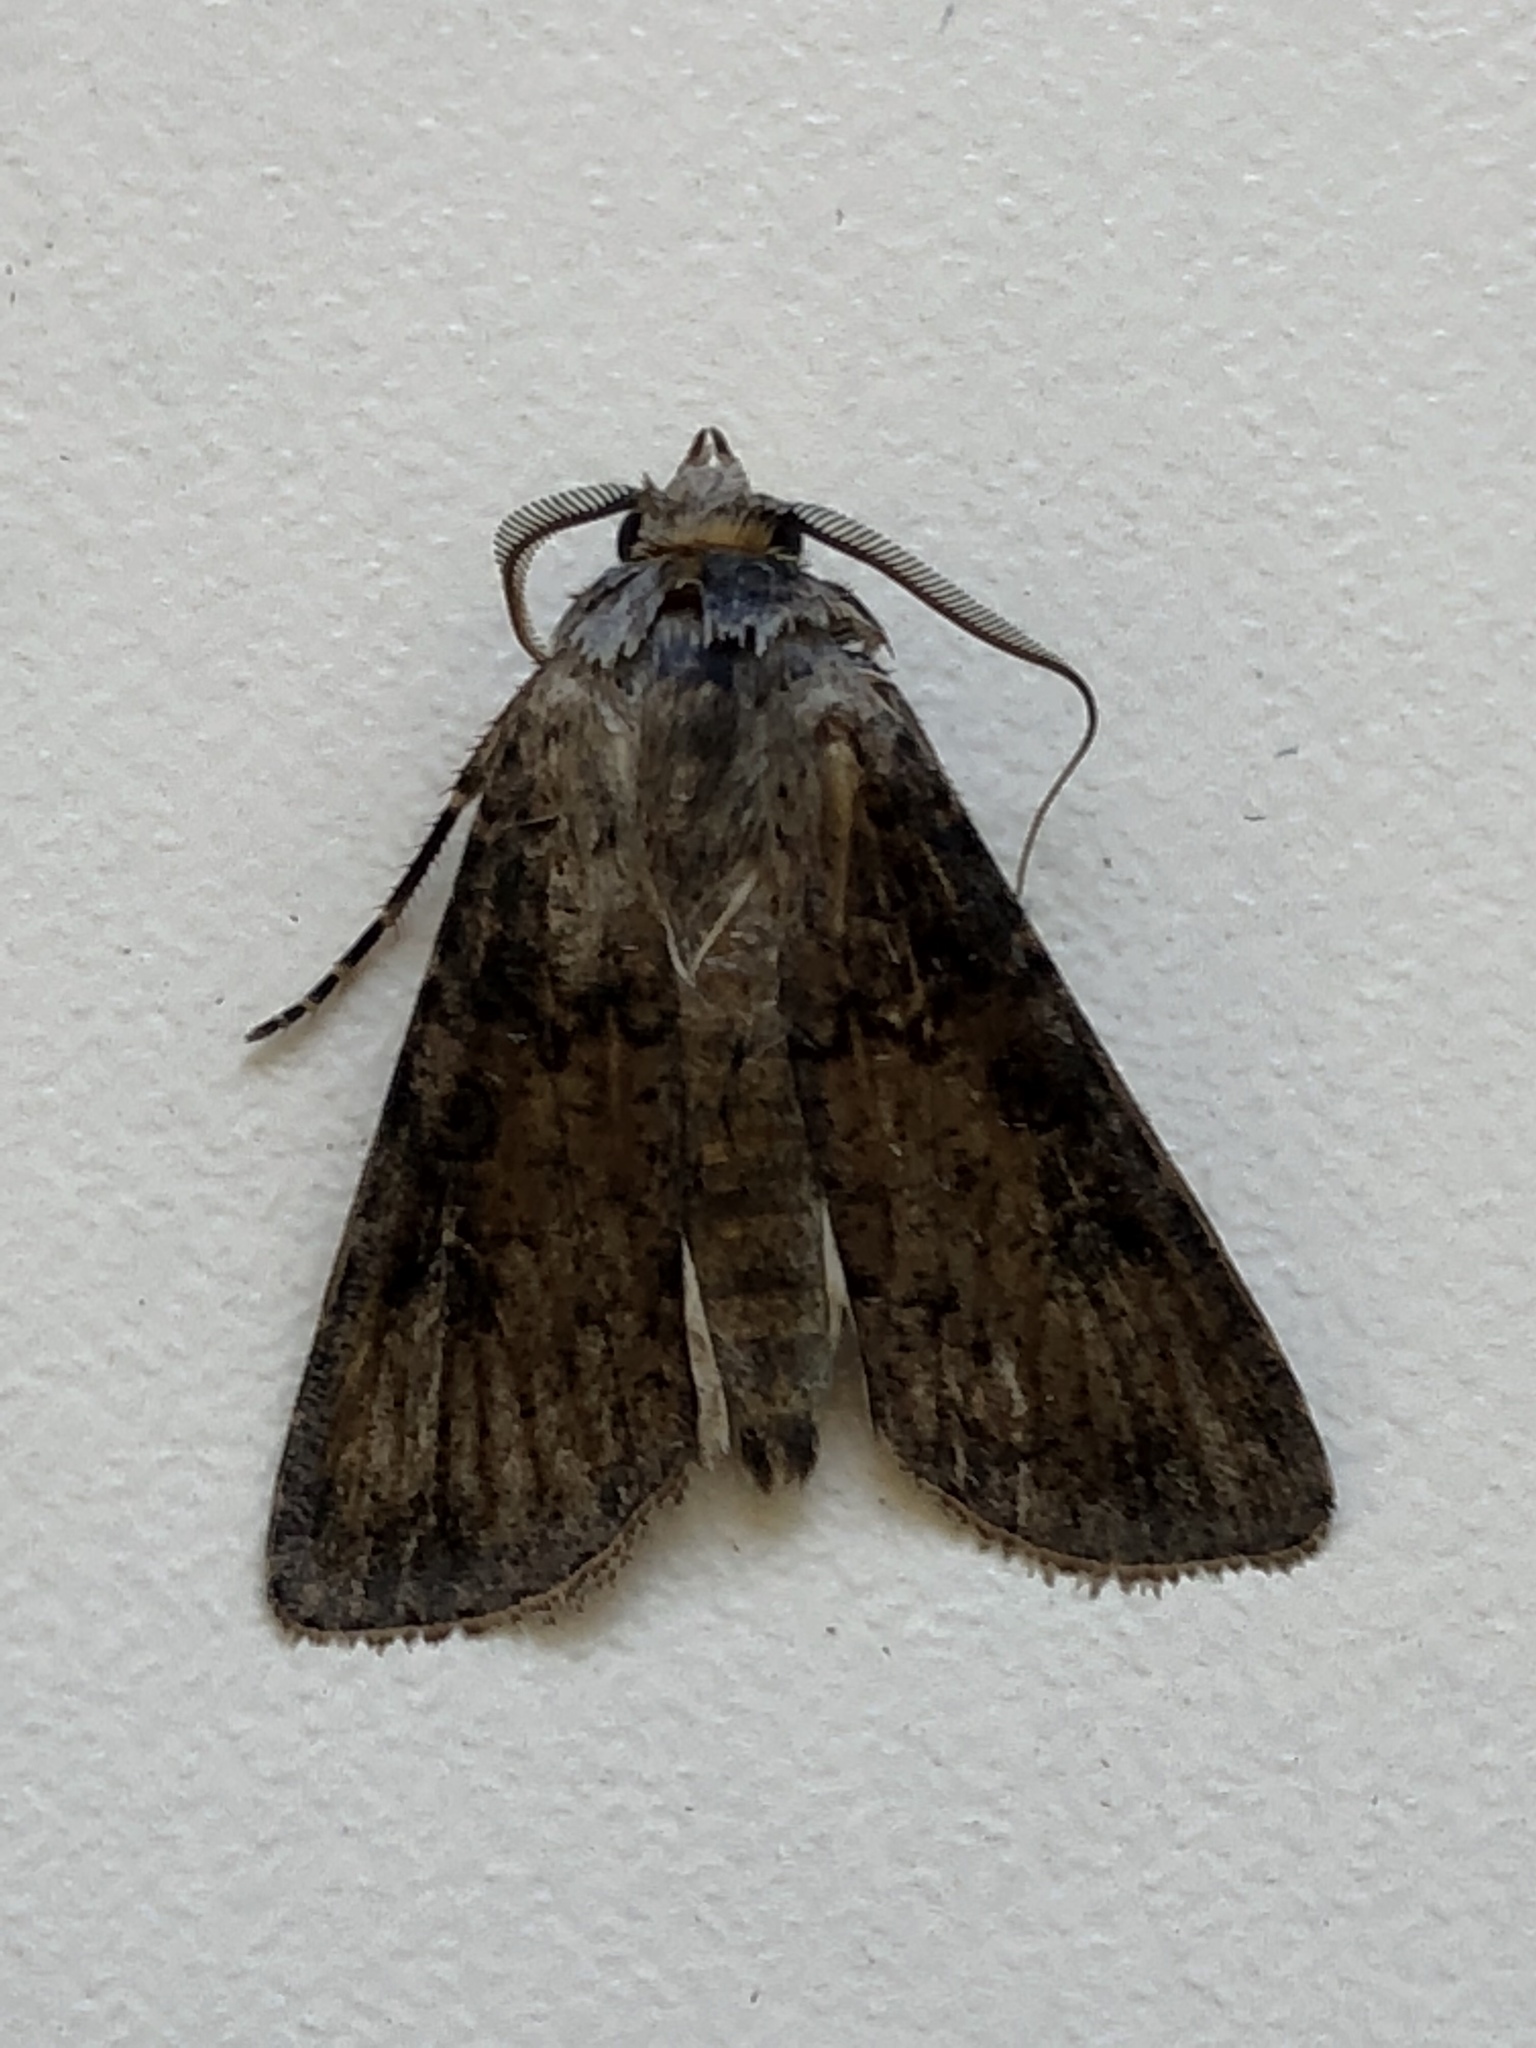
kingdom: Animalia
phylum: Arthropoda
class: Insecta
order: Lepidoptera
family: Noctuidae
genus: Agrotis
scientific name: Agrotis segetum
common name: Turnip moth
